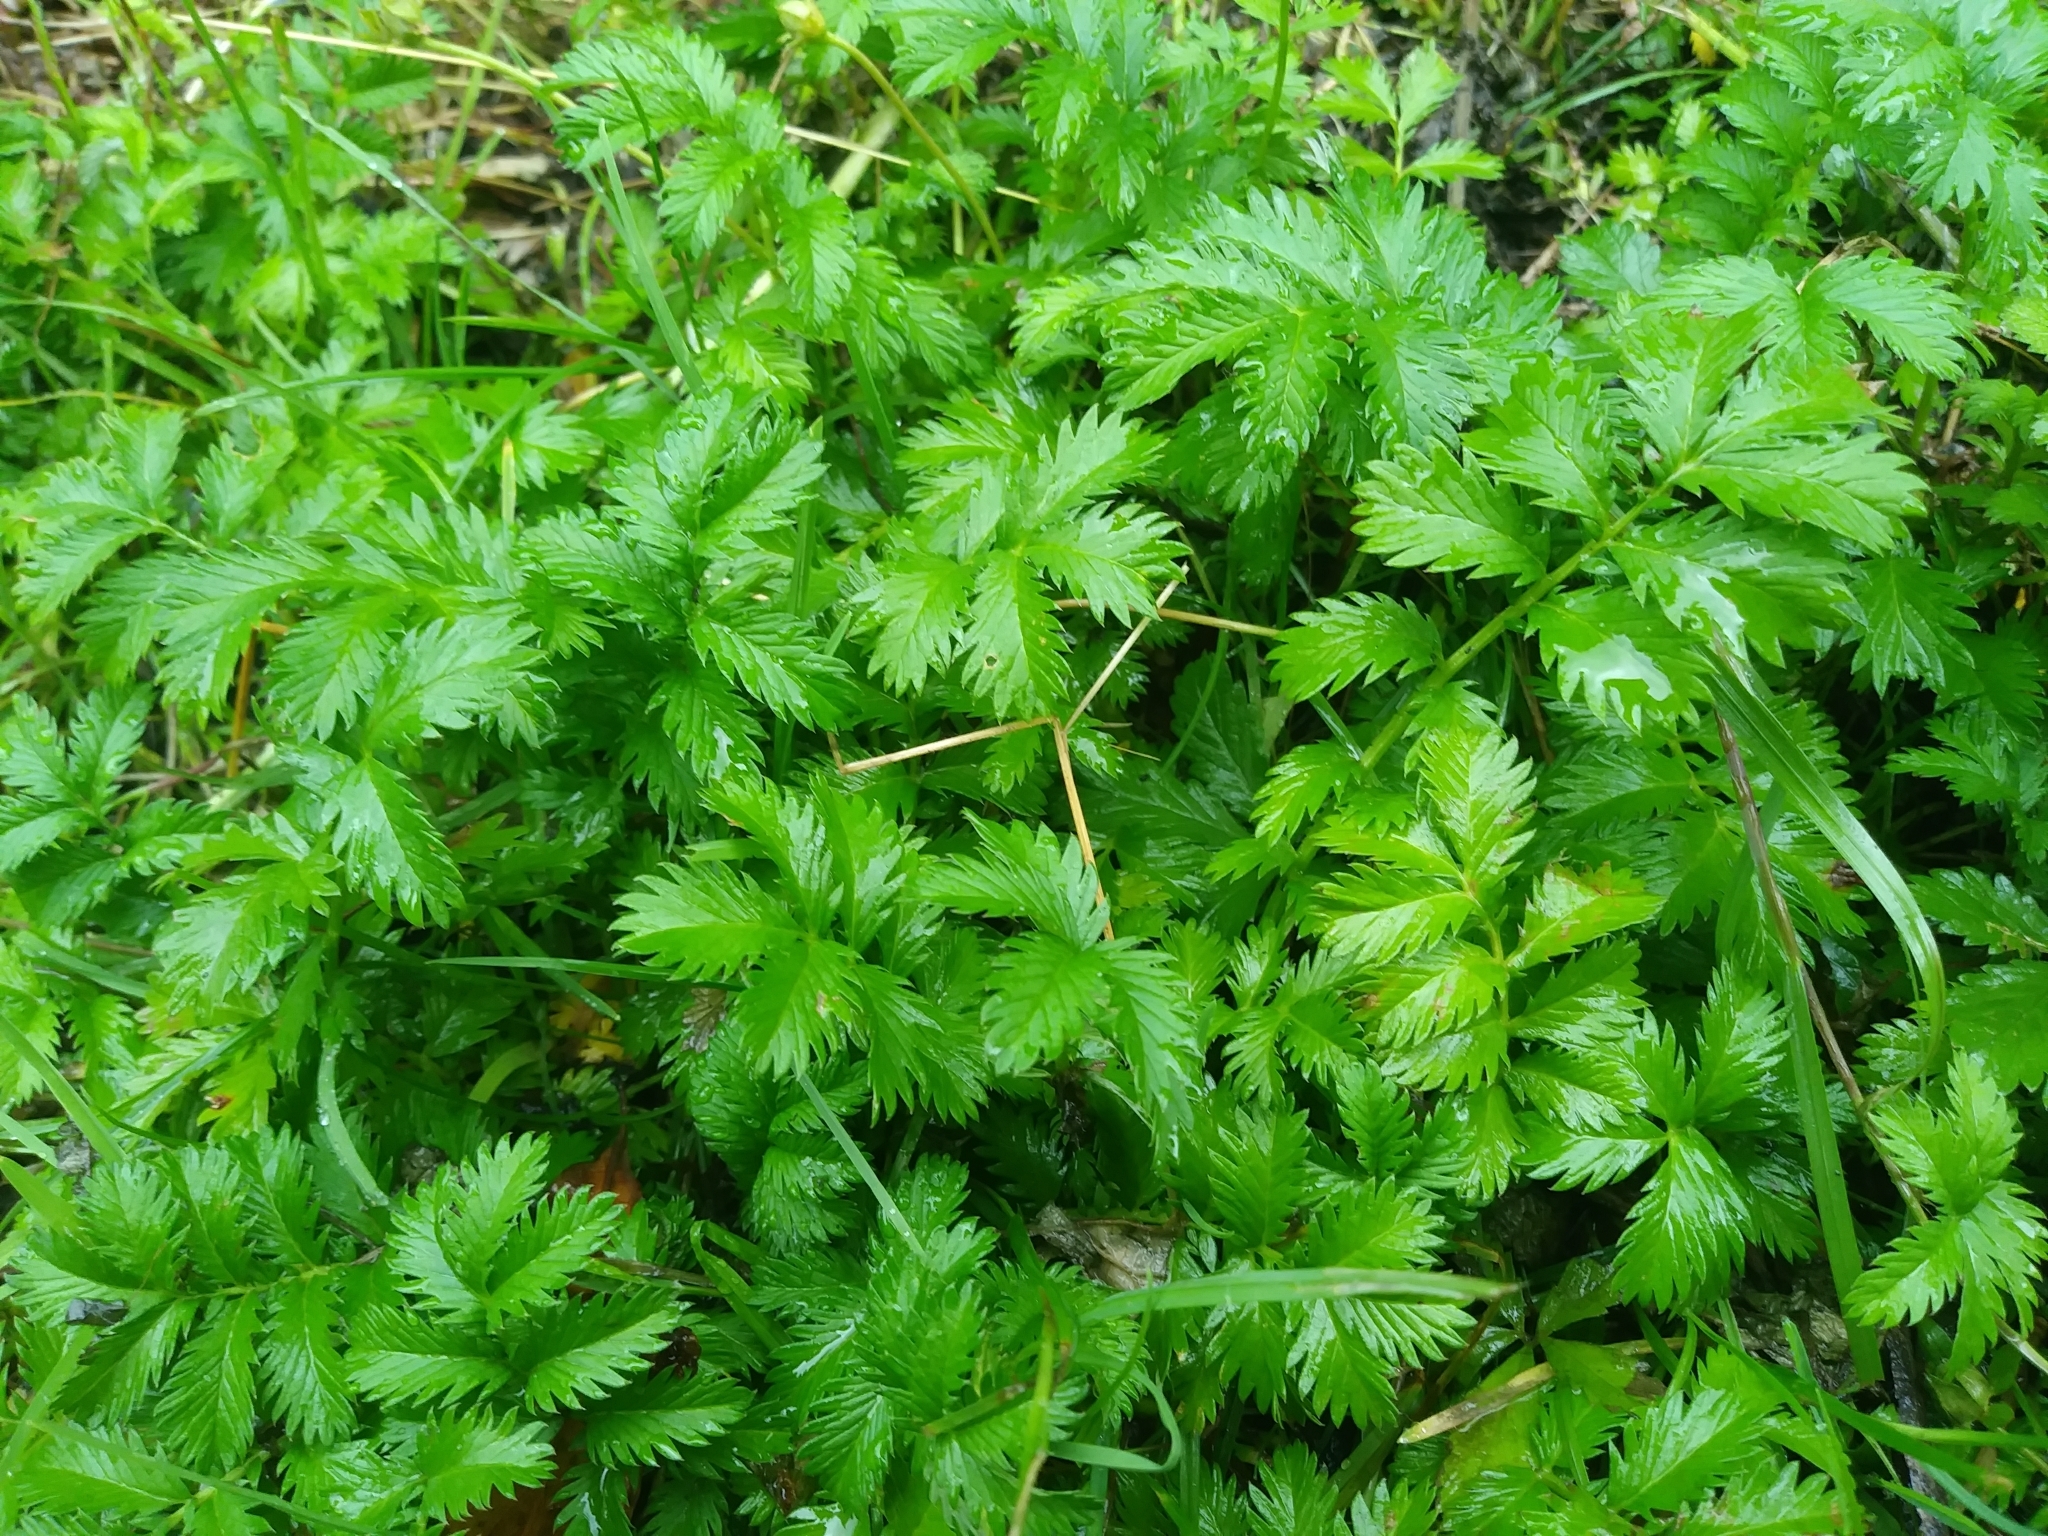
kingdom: Plantae
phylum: Tracheophyta
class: Magnoliopsida
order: Rosales
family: Rosaceae
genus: Argentina
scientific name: Argentina anserina
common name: Common silverweed
